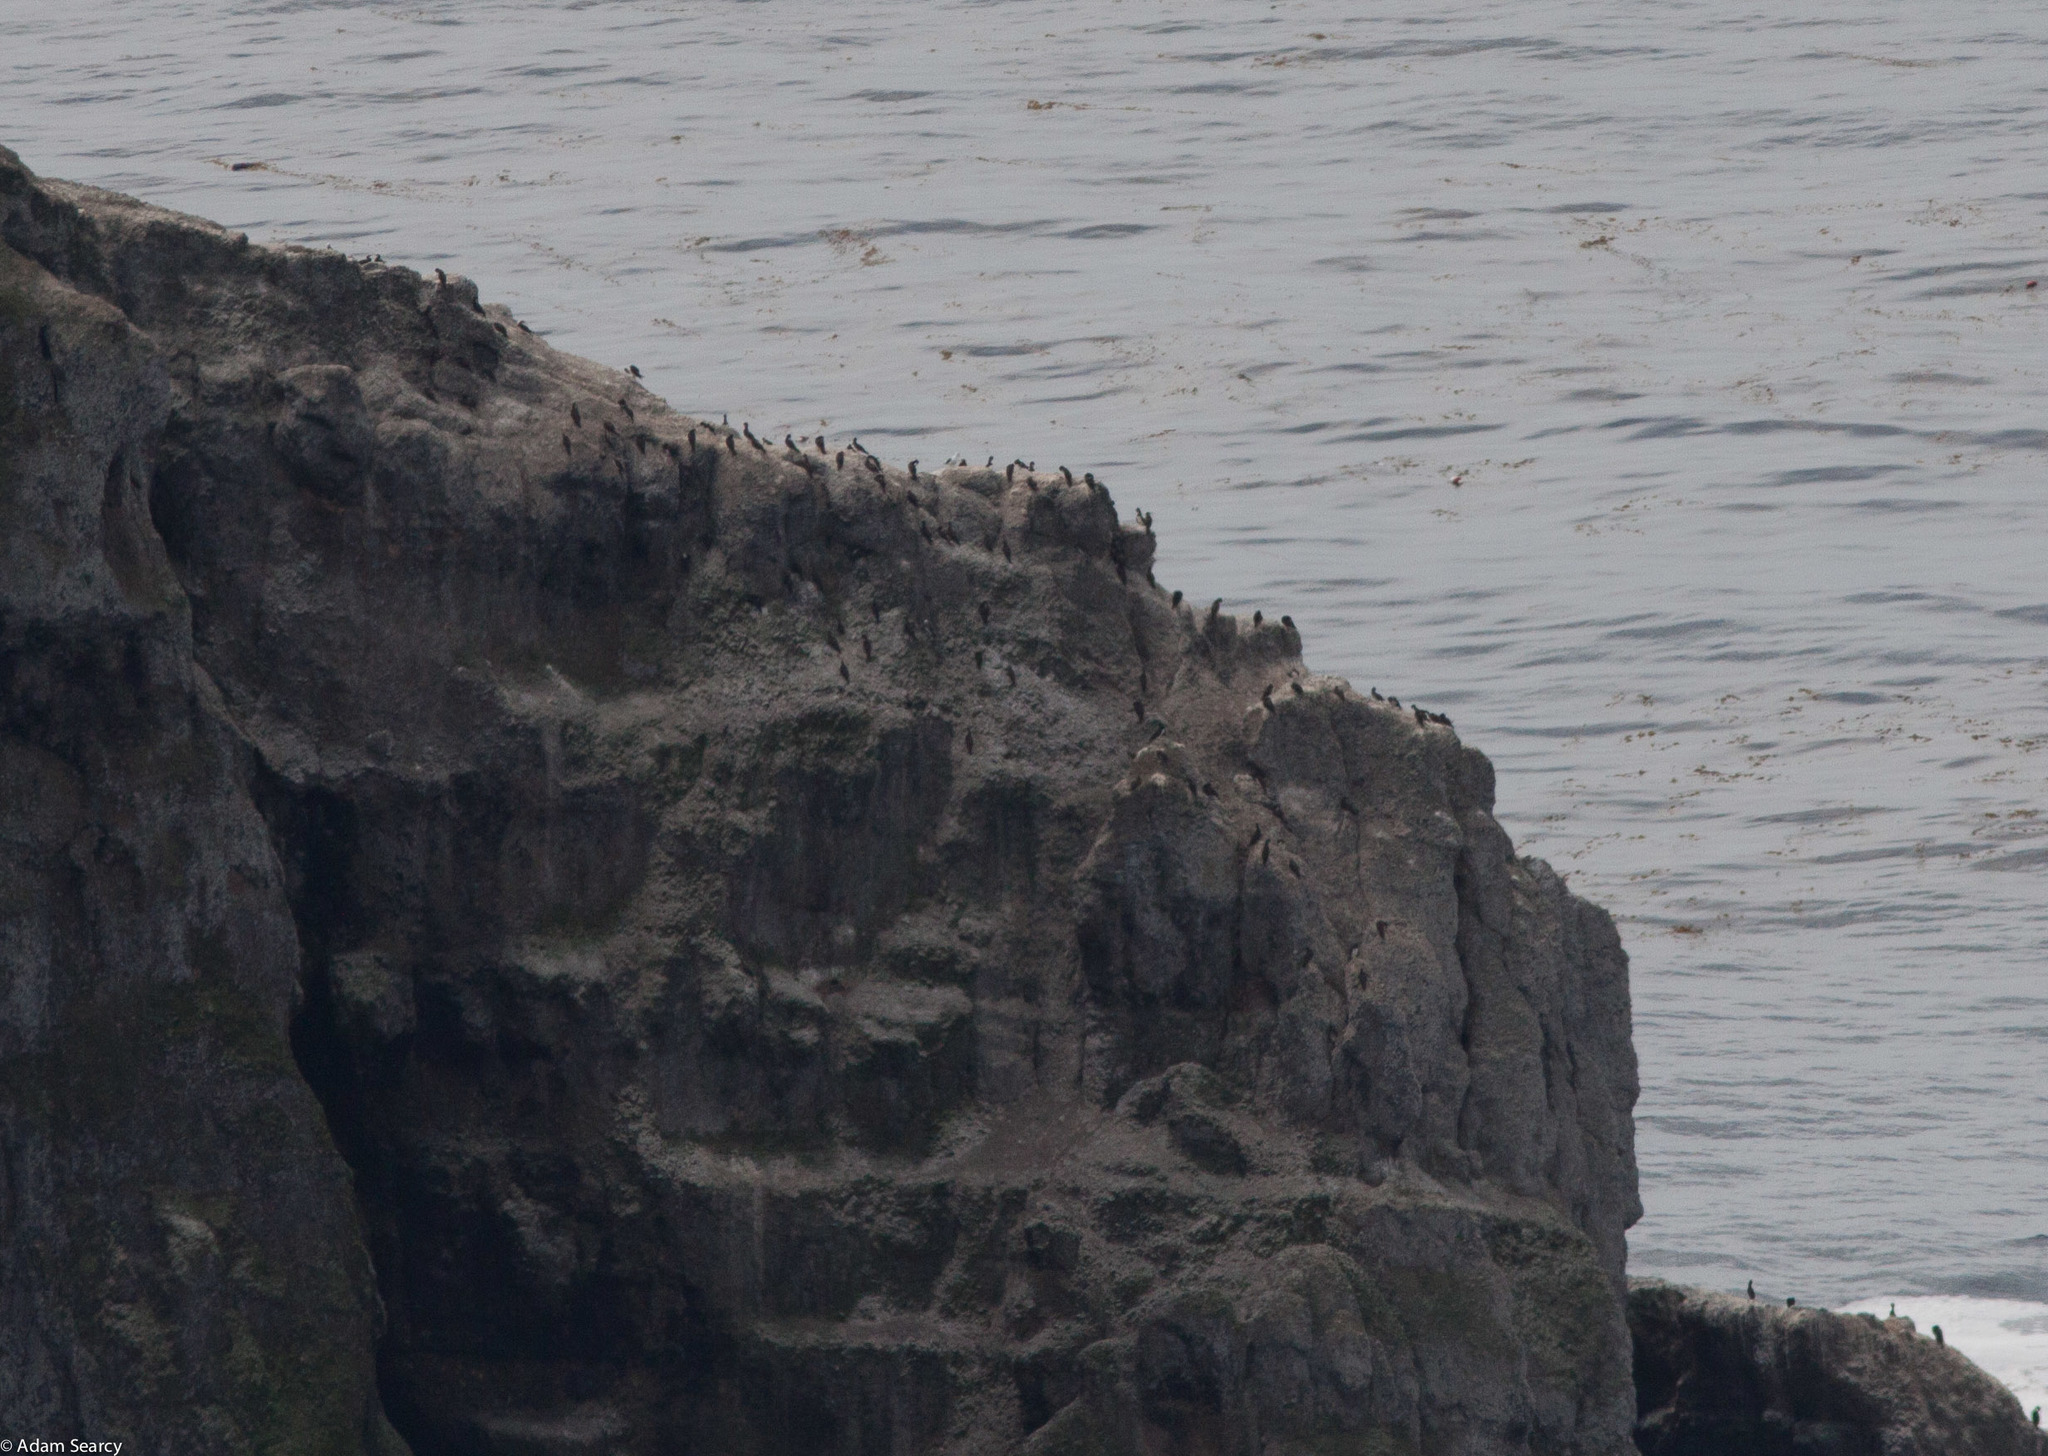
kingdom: Animalia
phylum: Chordata
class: Aves
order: Suliformes
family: Sulidae
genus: Sula
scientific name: Sula leucogaster
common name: Brown booby
